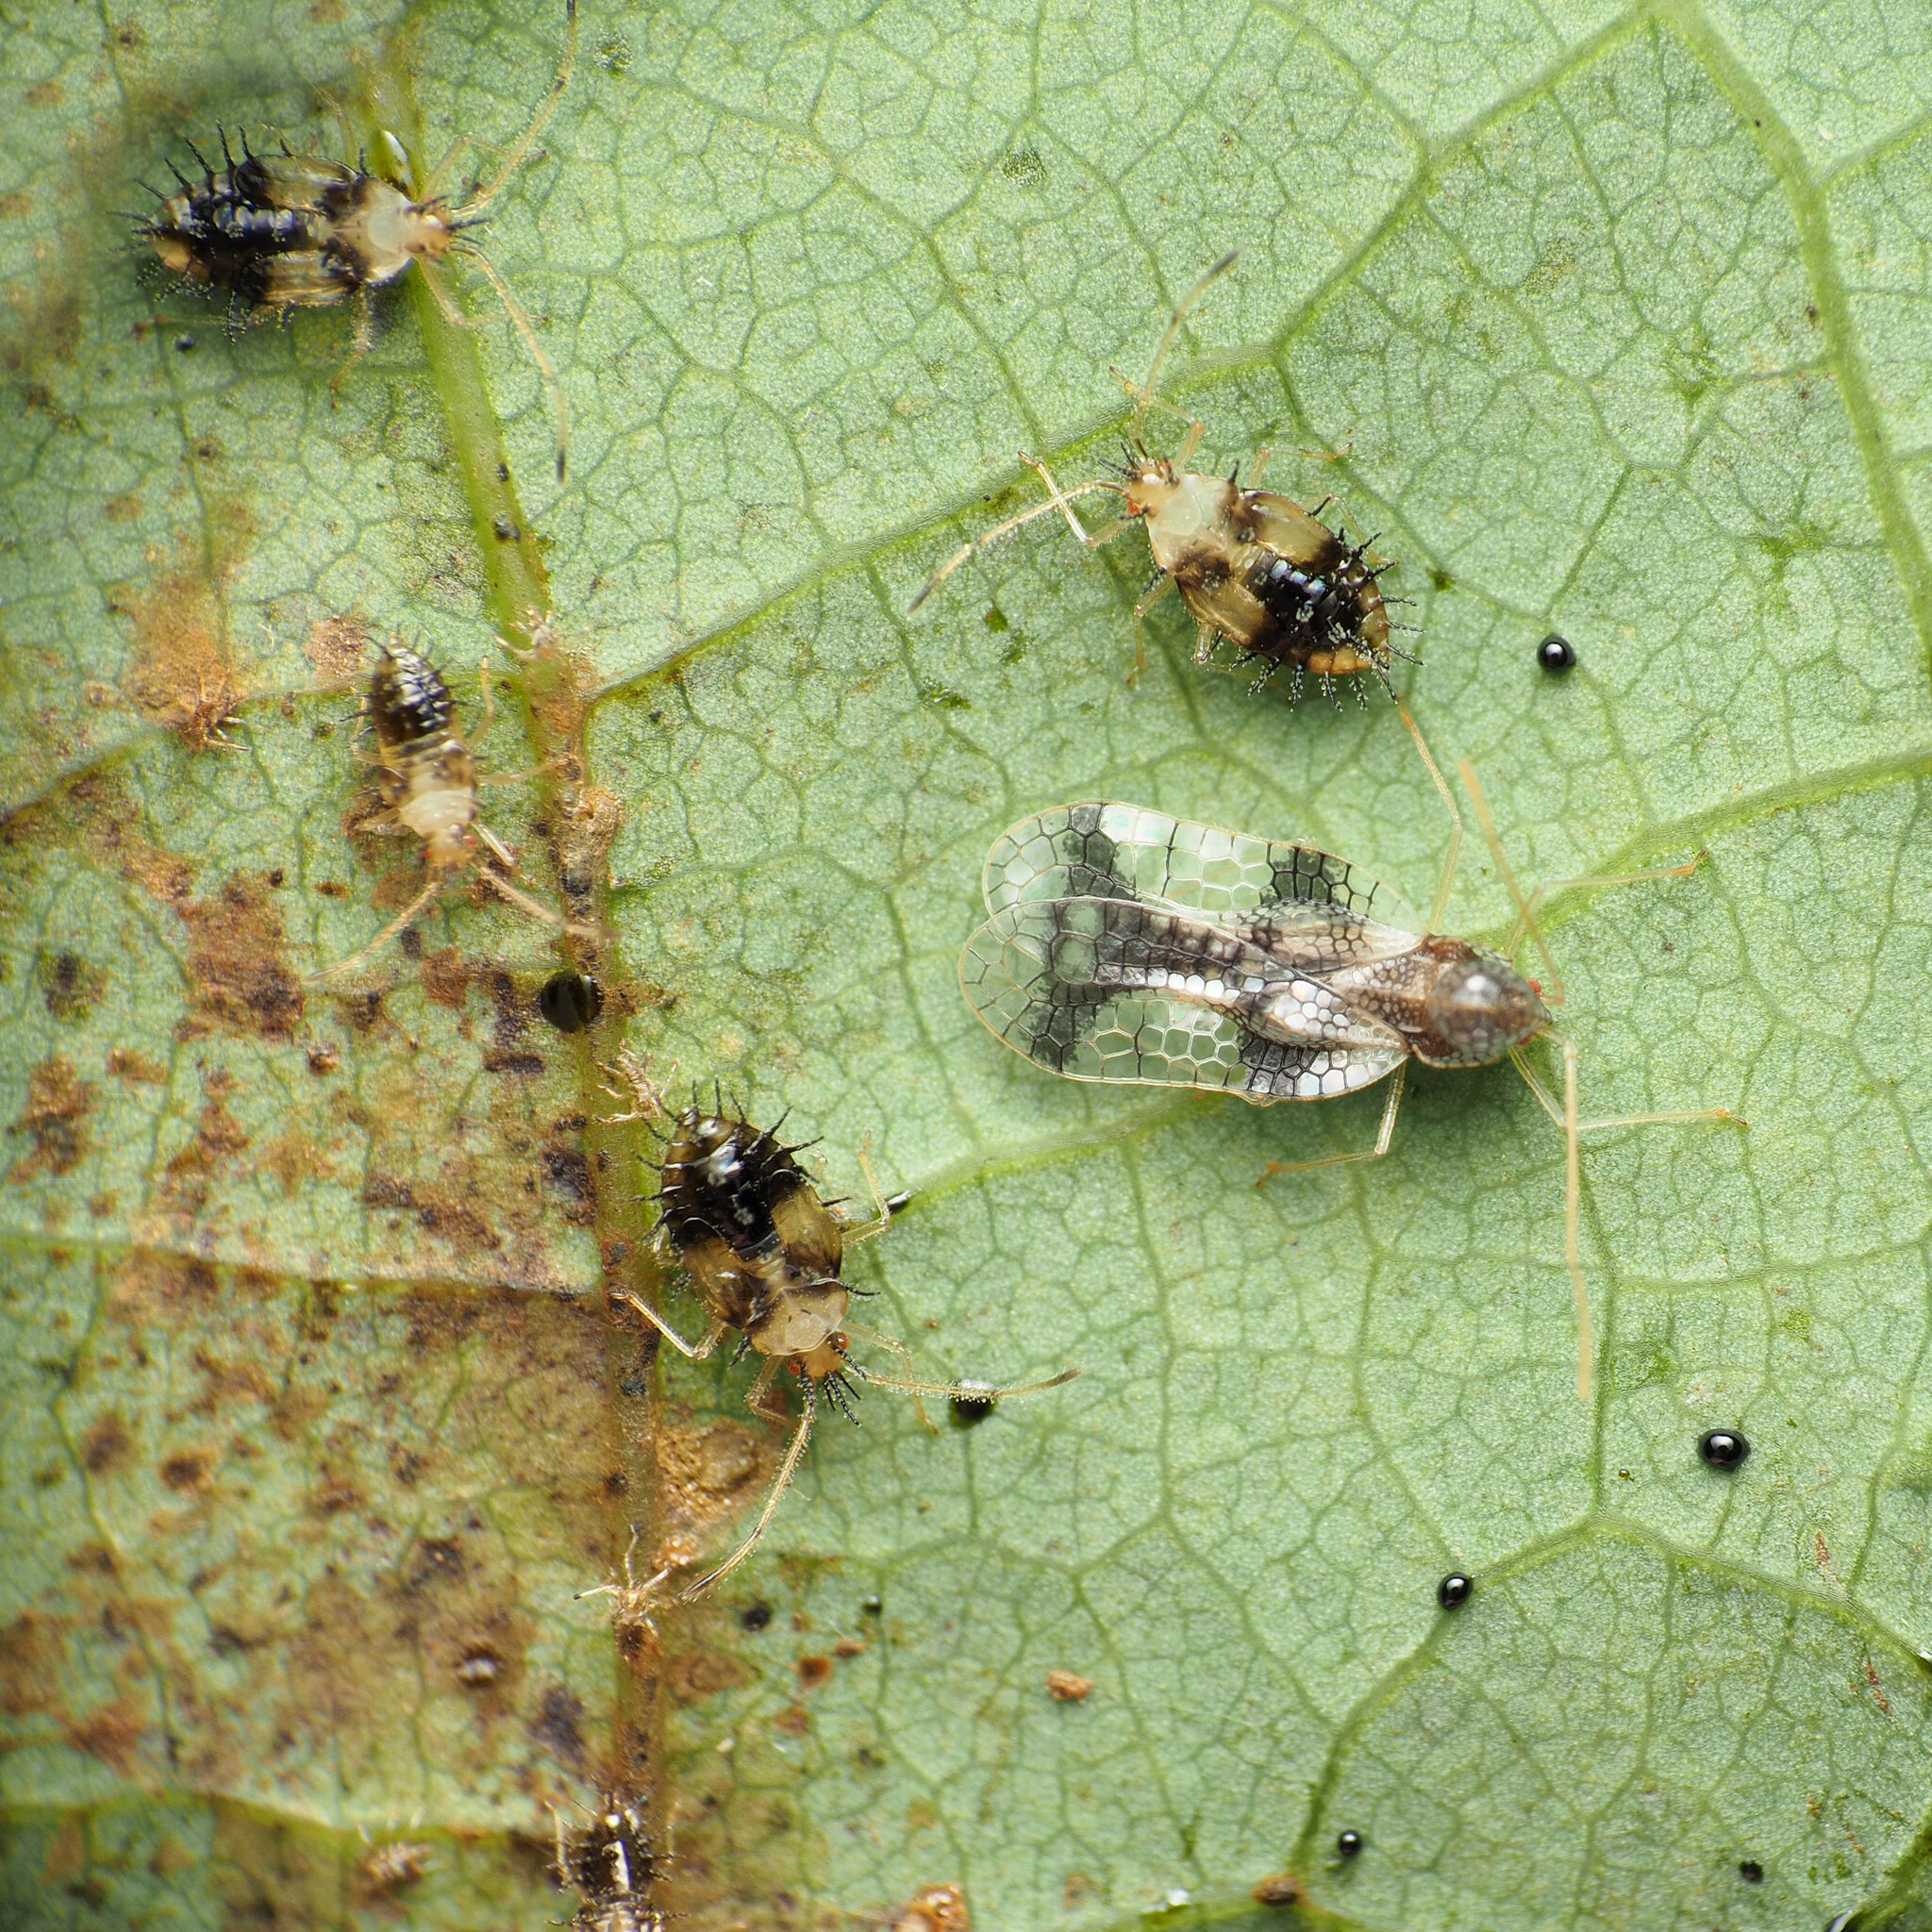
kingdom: Animalia
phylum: Arthropoda
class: Insecta
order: Hemiptera
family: Tingidae
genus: Stephanitis
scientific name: Stephanitis takeyai
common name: Andromeda lacebug
